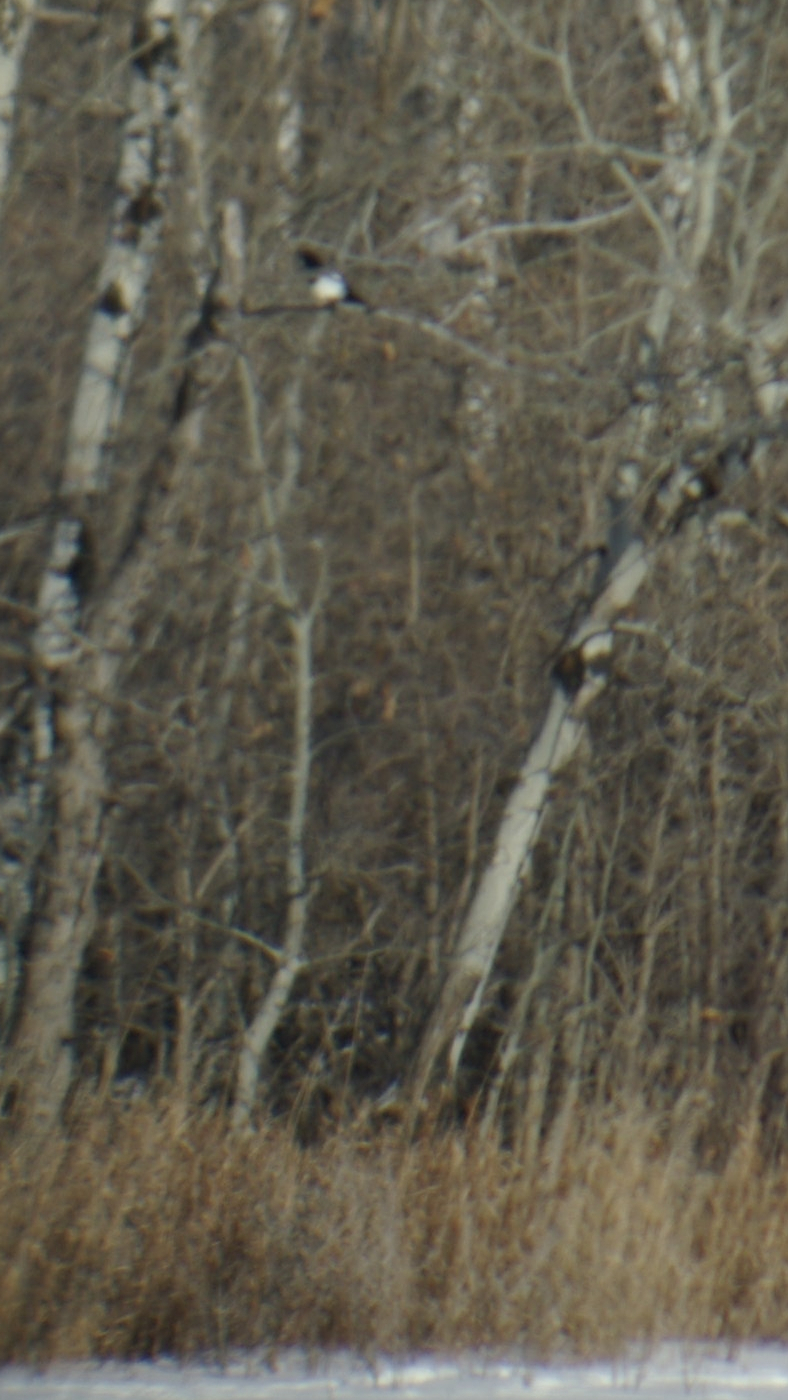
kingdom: Animalia
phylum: Chordata
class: Aves
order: Passeriformes
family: Corvidae
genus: Pica
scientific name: Pica hudsonia
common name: Black-billed magpie
